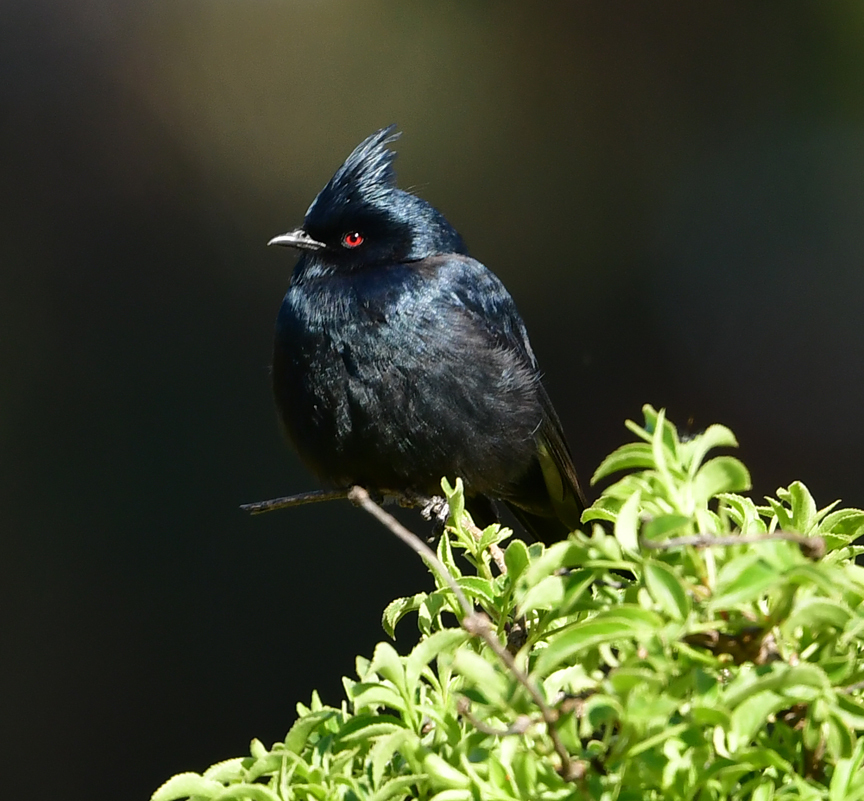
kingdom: Animalia
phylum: Chordata
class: Aves
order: Passeriformes
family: Ptilogonatidae
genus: Phainopepla
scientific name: Phainopepla nitens
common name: Phainopepla
